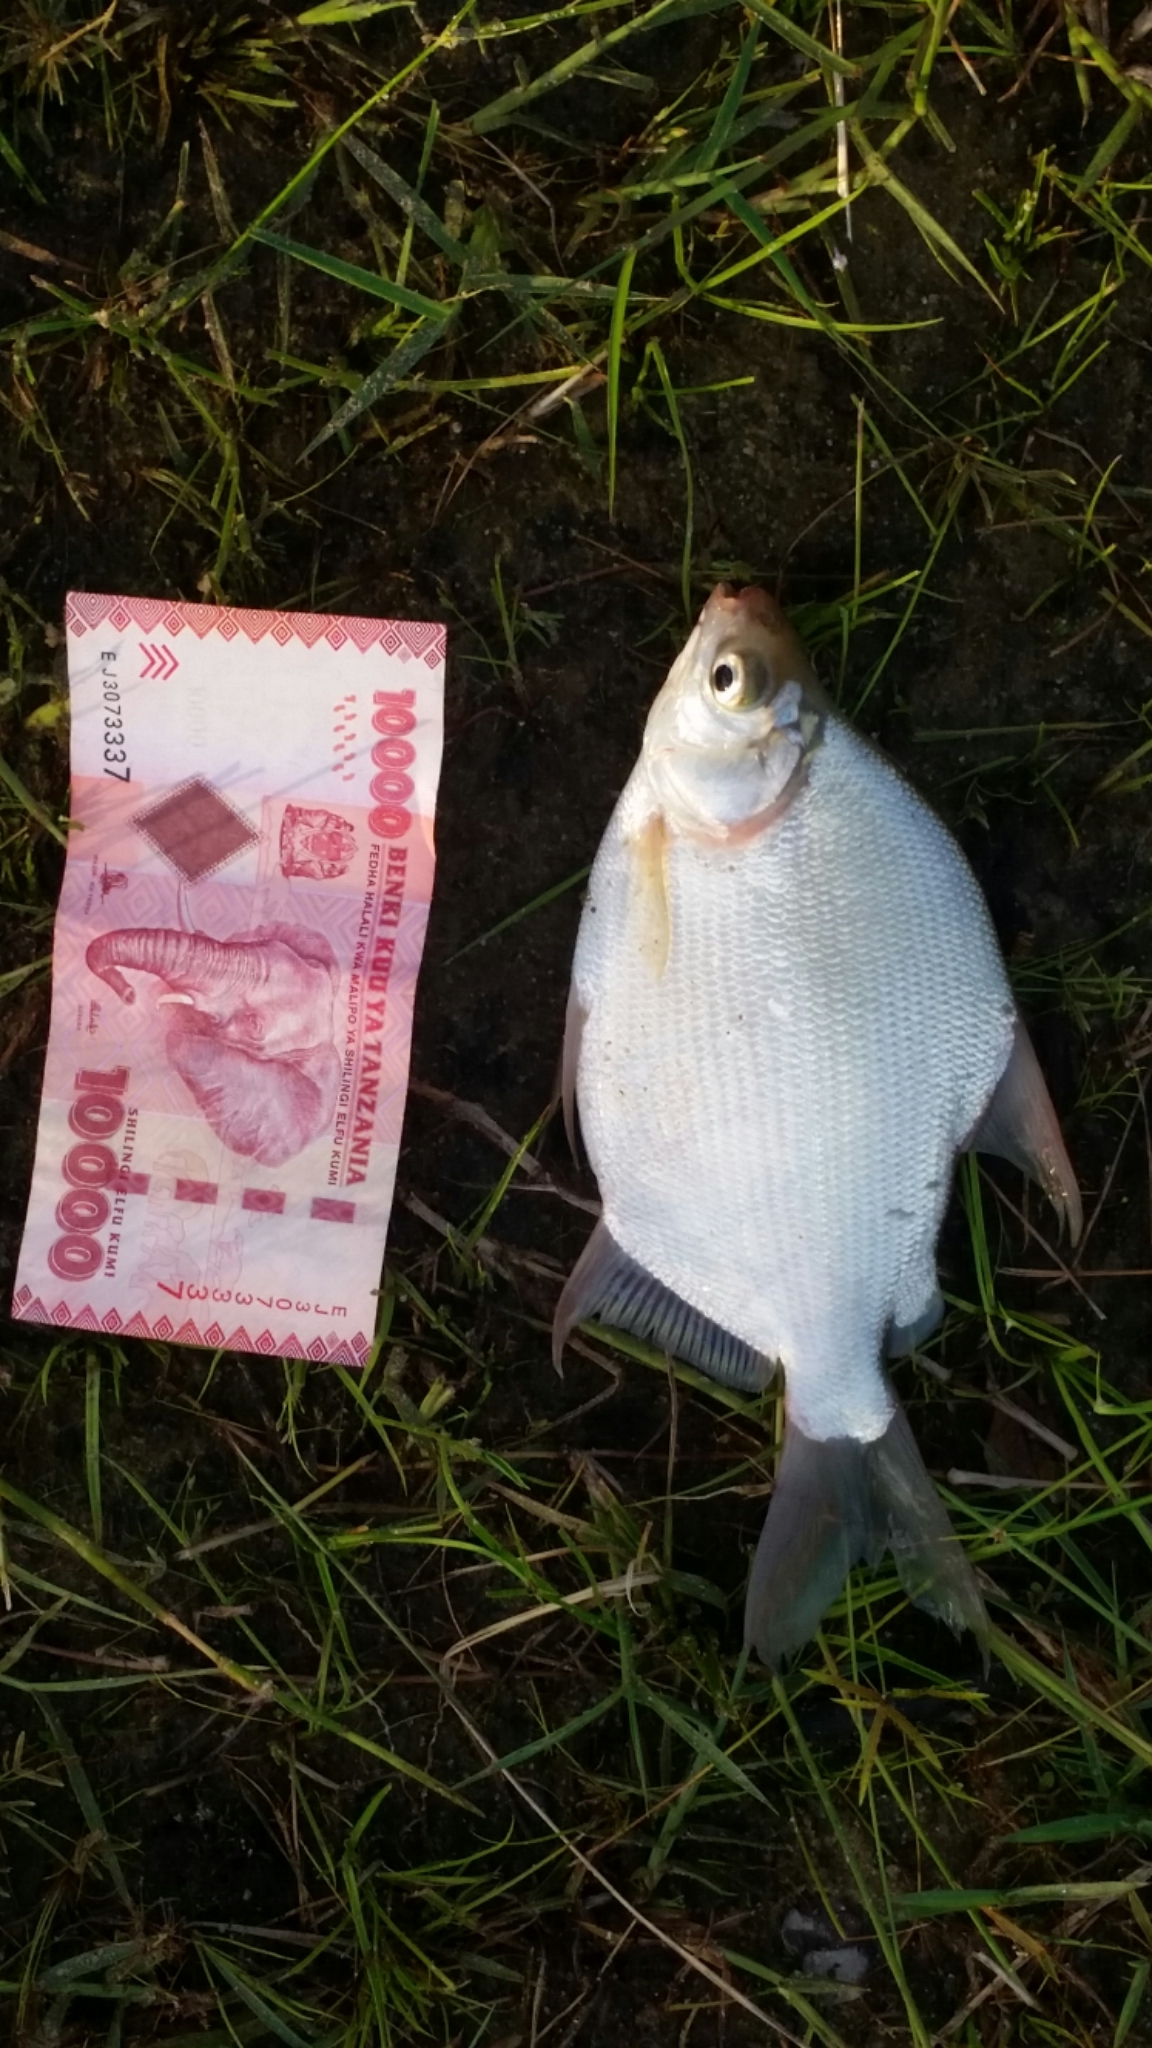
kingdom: Animalia
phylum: Chordata
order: Characiformes
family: Citharinidae
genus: Citharinus
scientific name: Citharinus congicus
